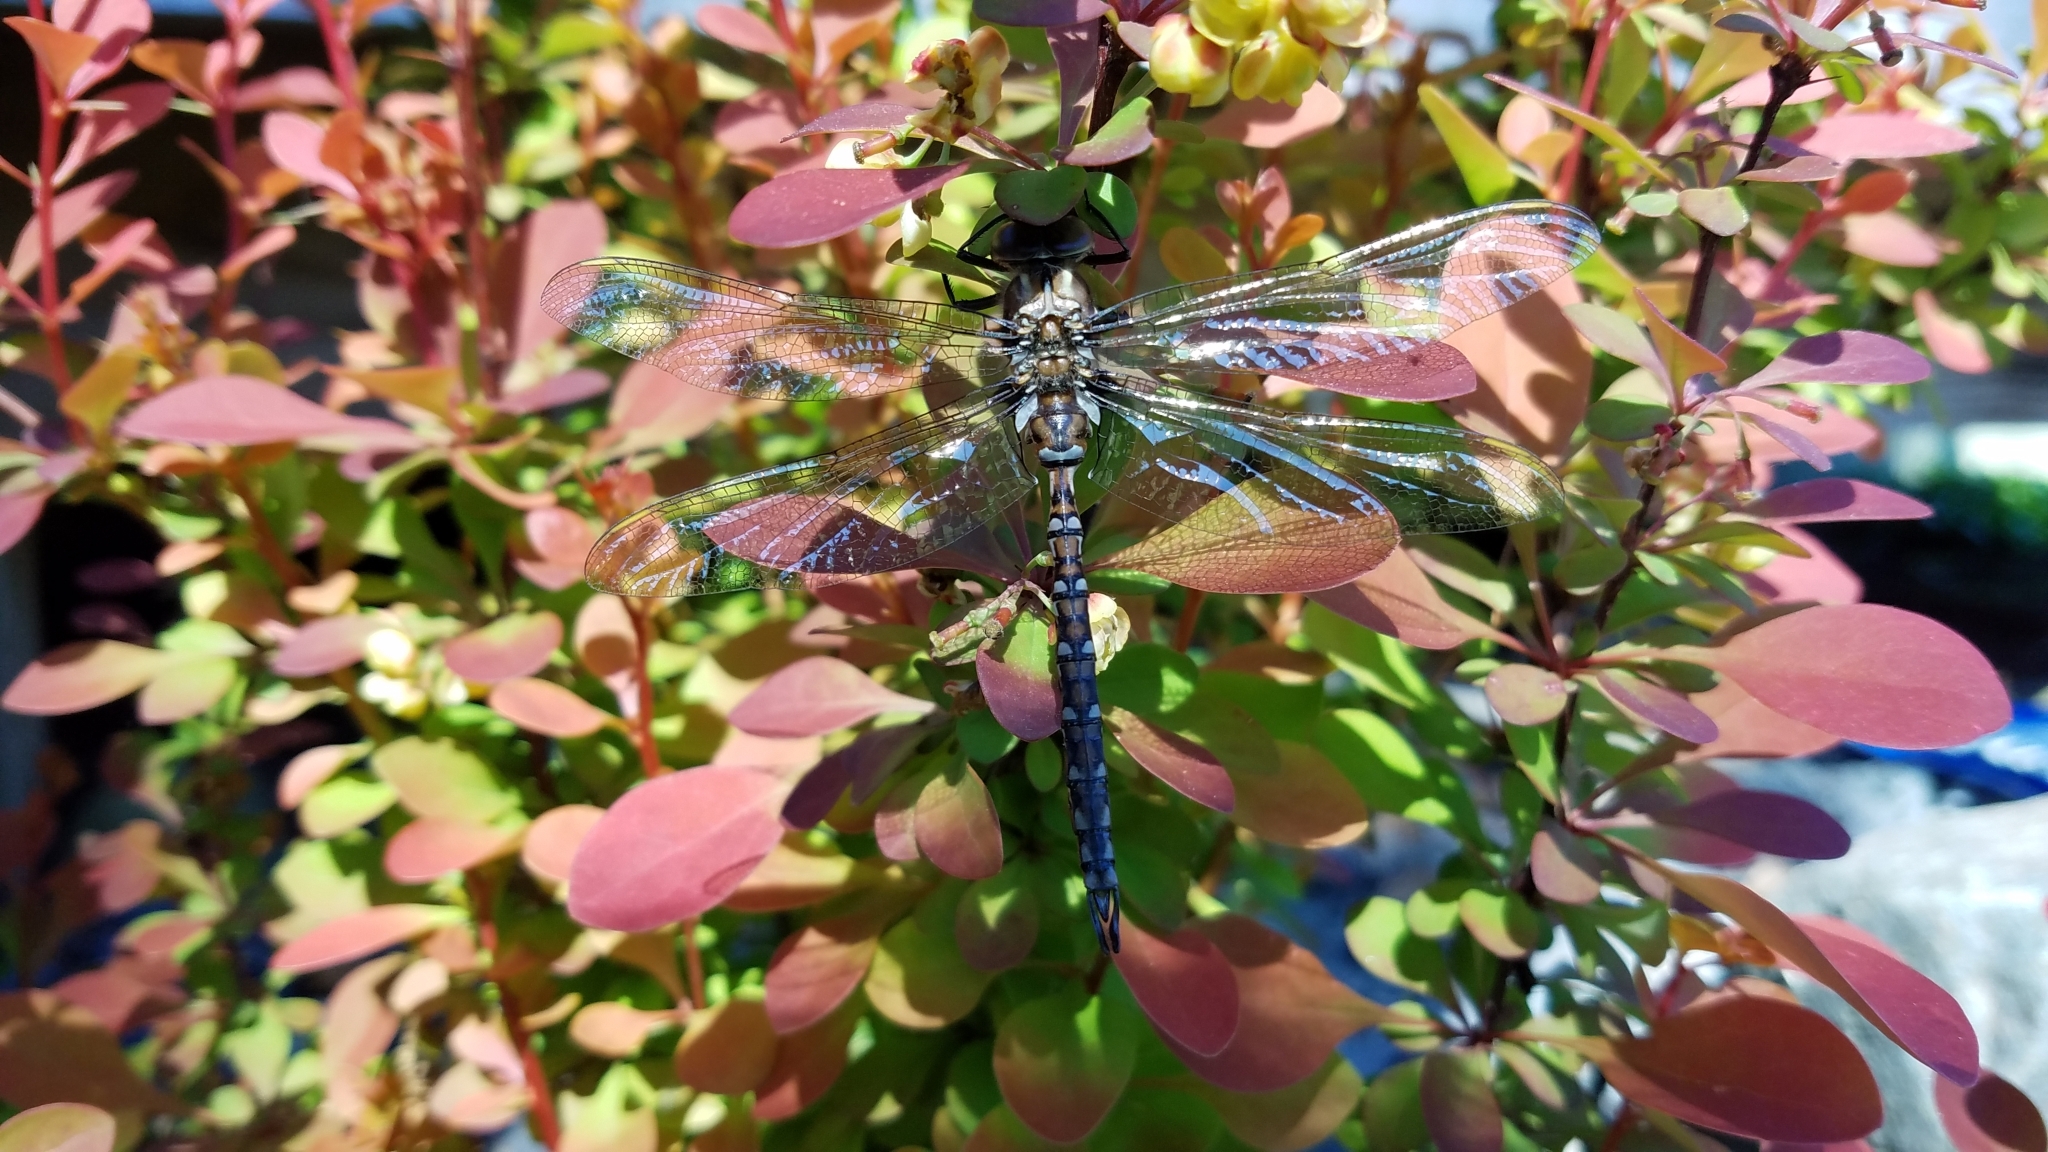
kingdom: Animalia
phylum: Arthropoda
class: Insecta
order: Odonata
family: Aeshnidae
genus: Basiaeschna
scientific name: Basiaeschna janata
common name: Springtime darner
